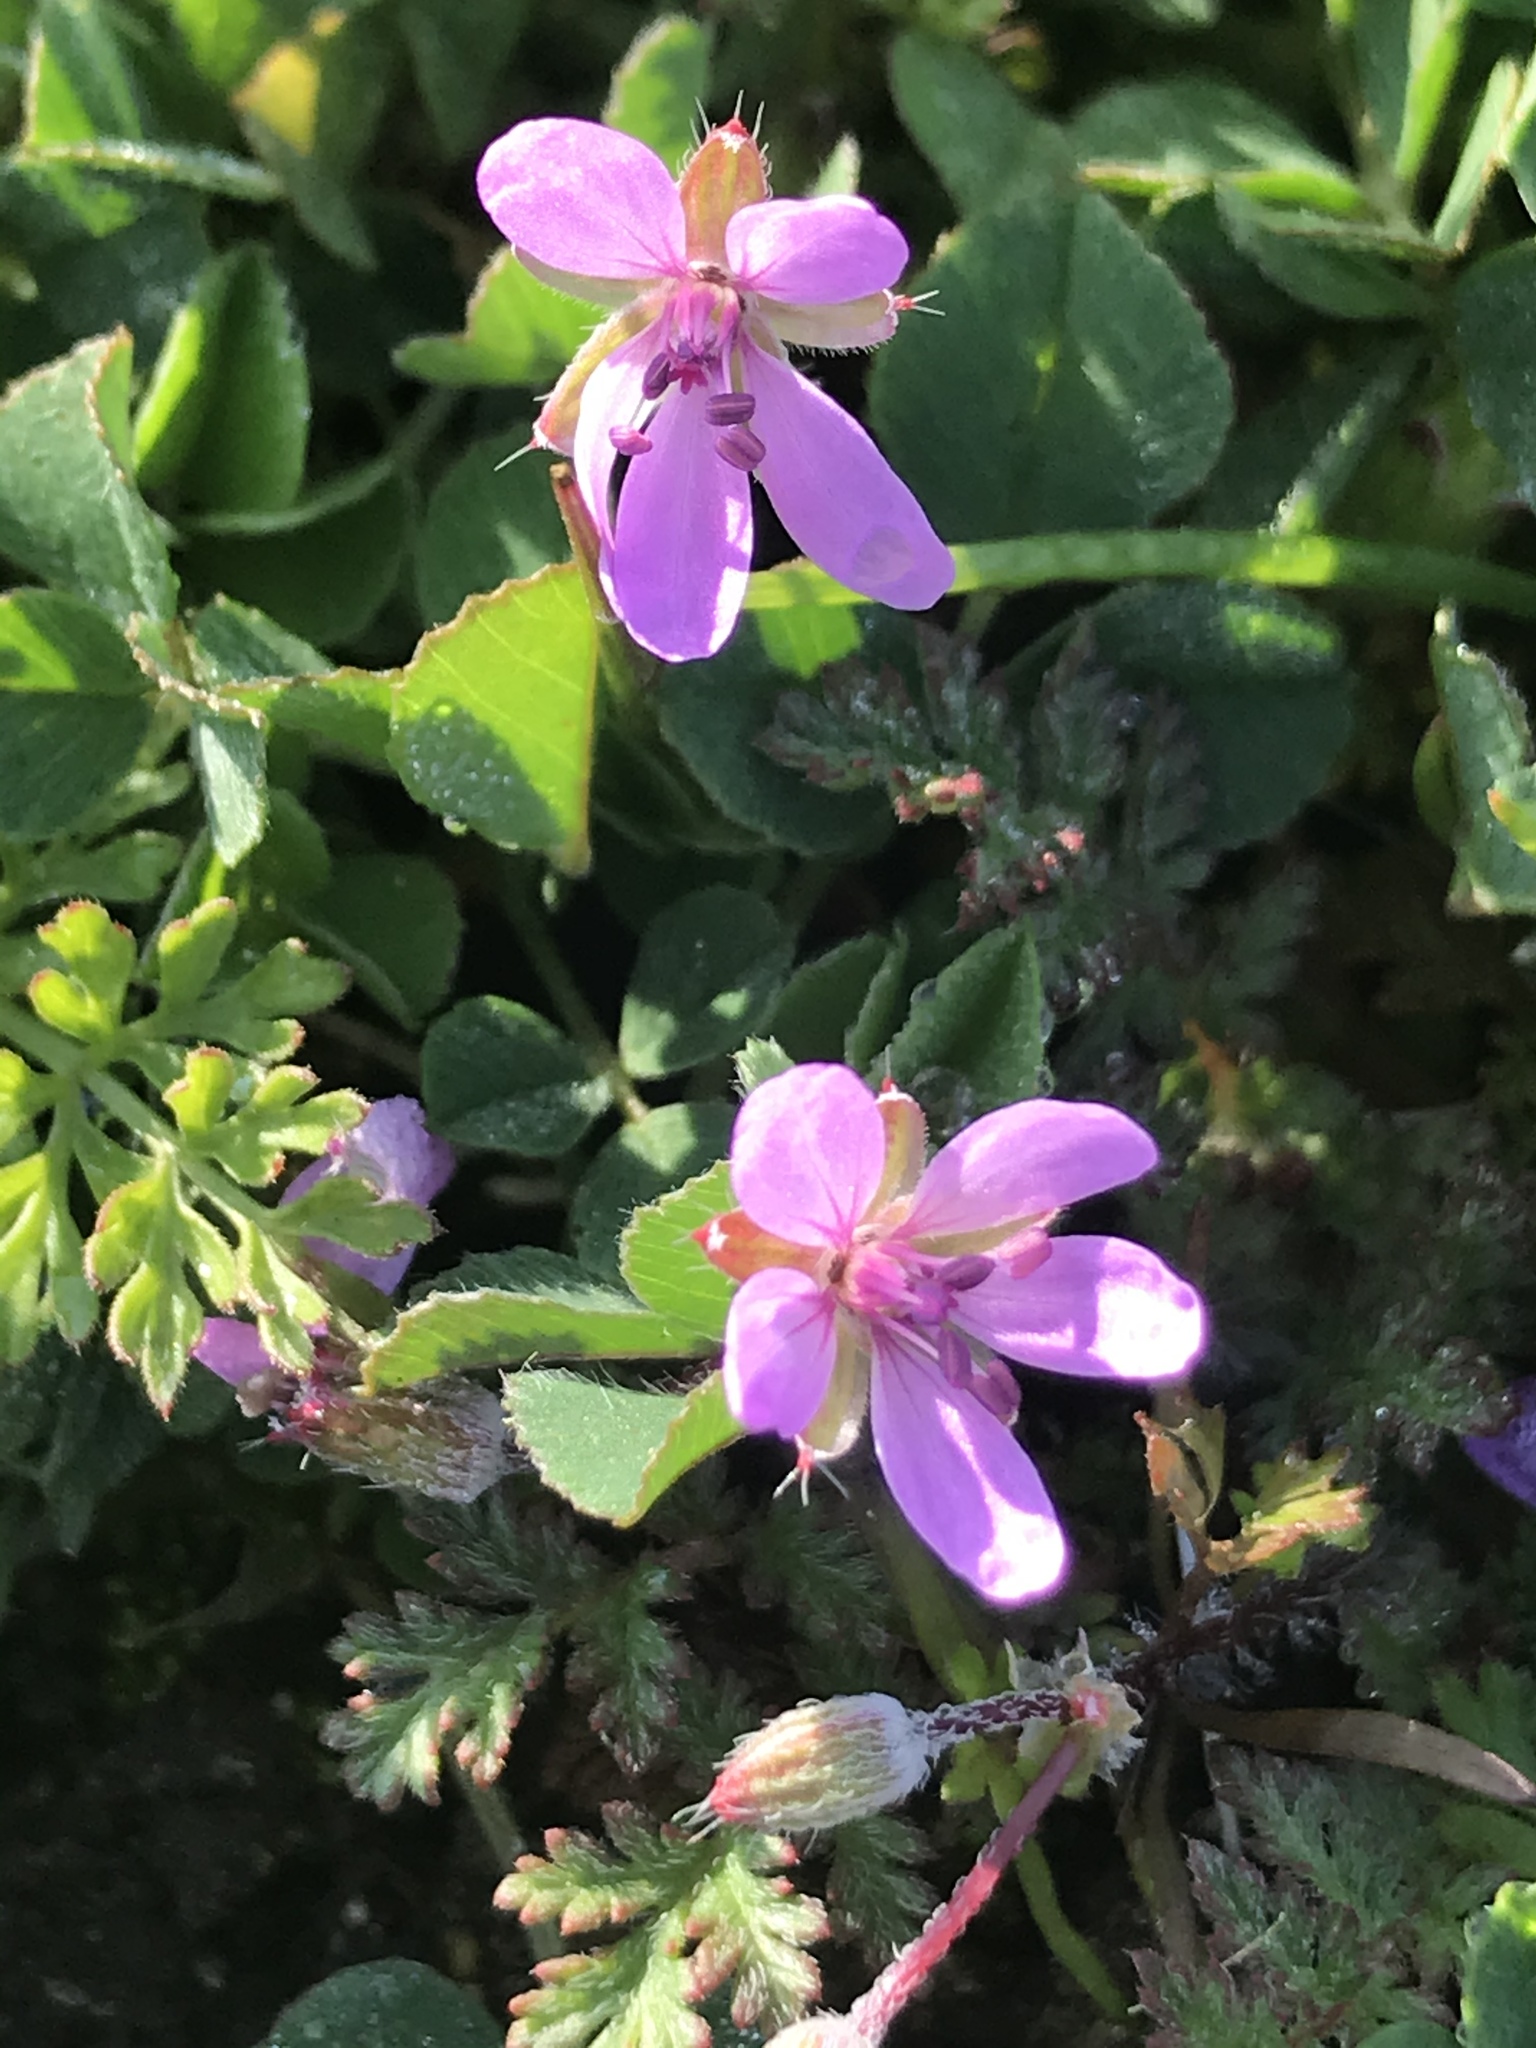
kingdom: Plantae
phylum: Tracheophyta
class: Magnoliopsida
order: Geraniales
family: Geraniaceae
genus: Erodium
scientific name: Erodium cicutarium
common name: Common stork's-bill
